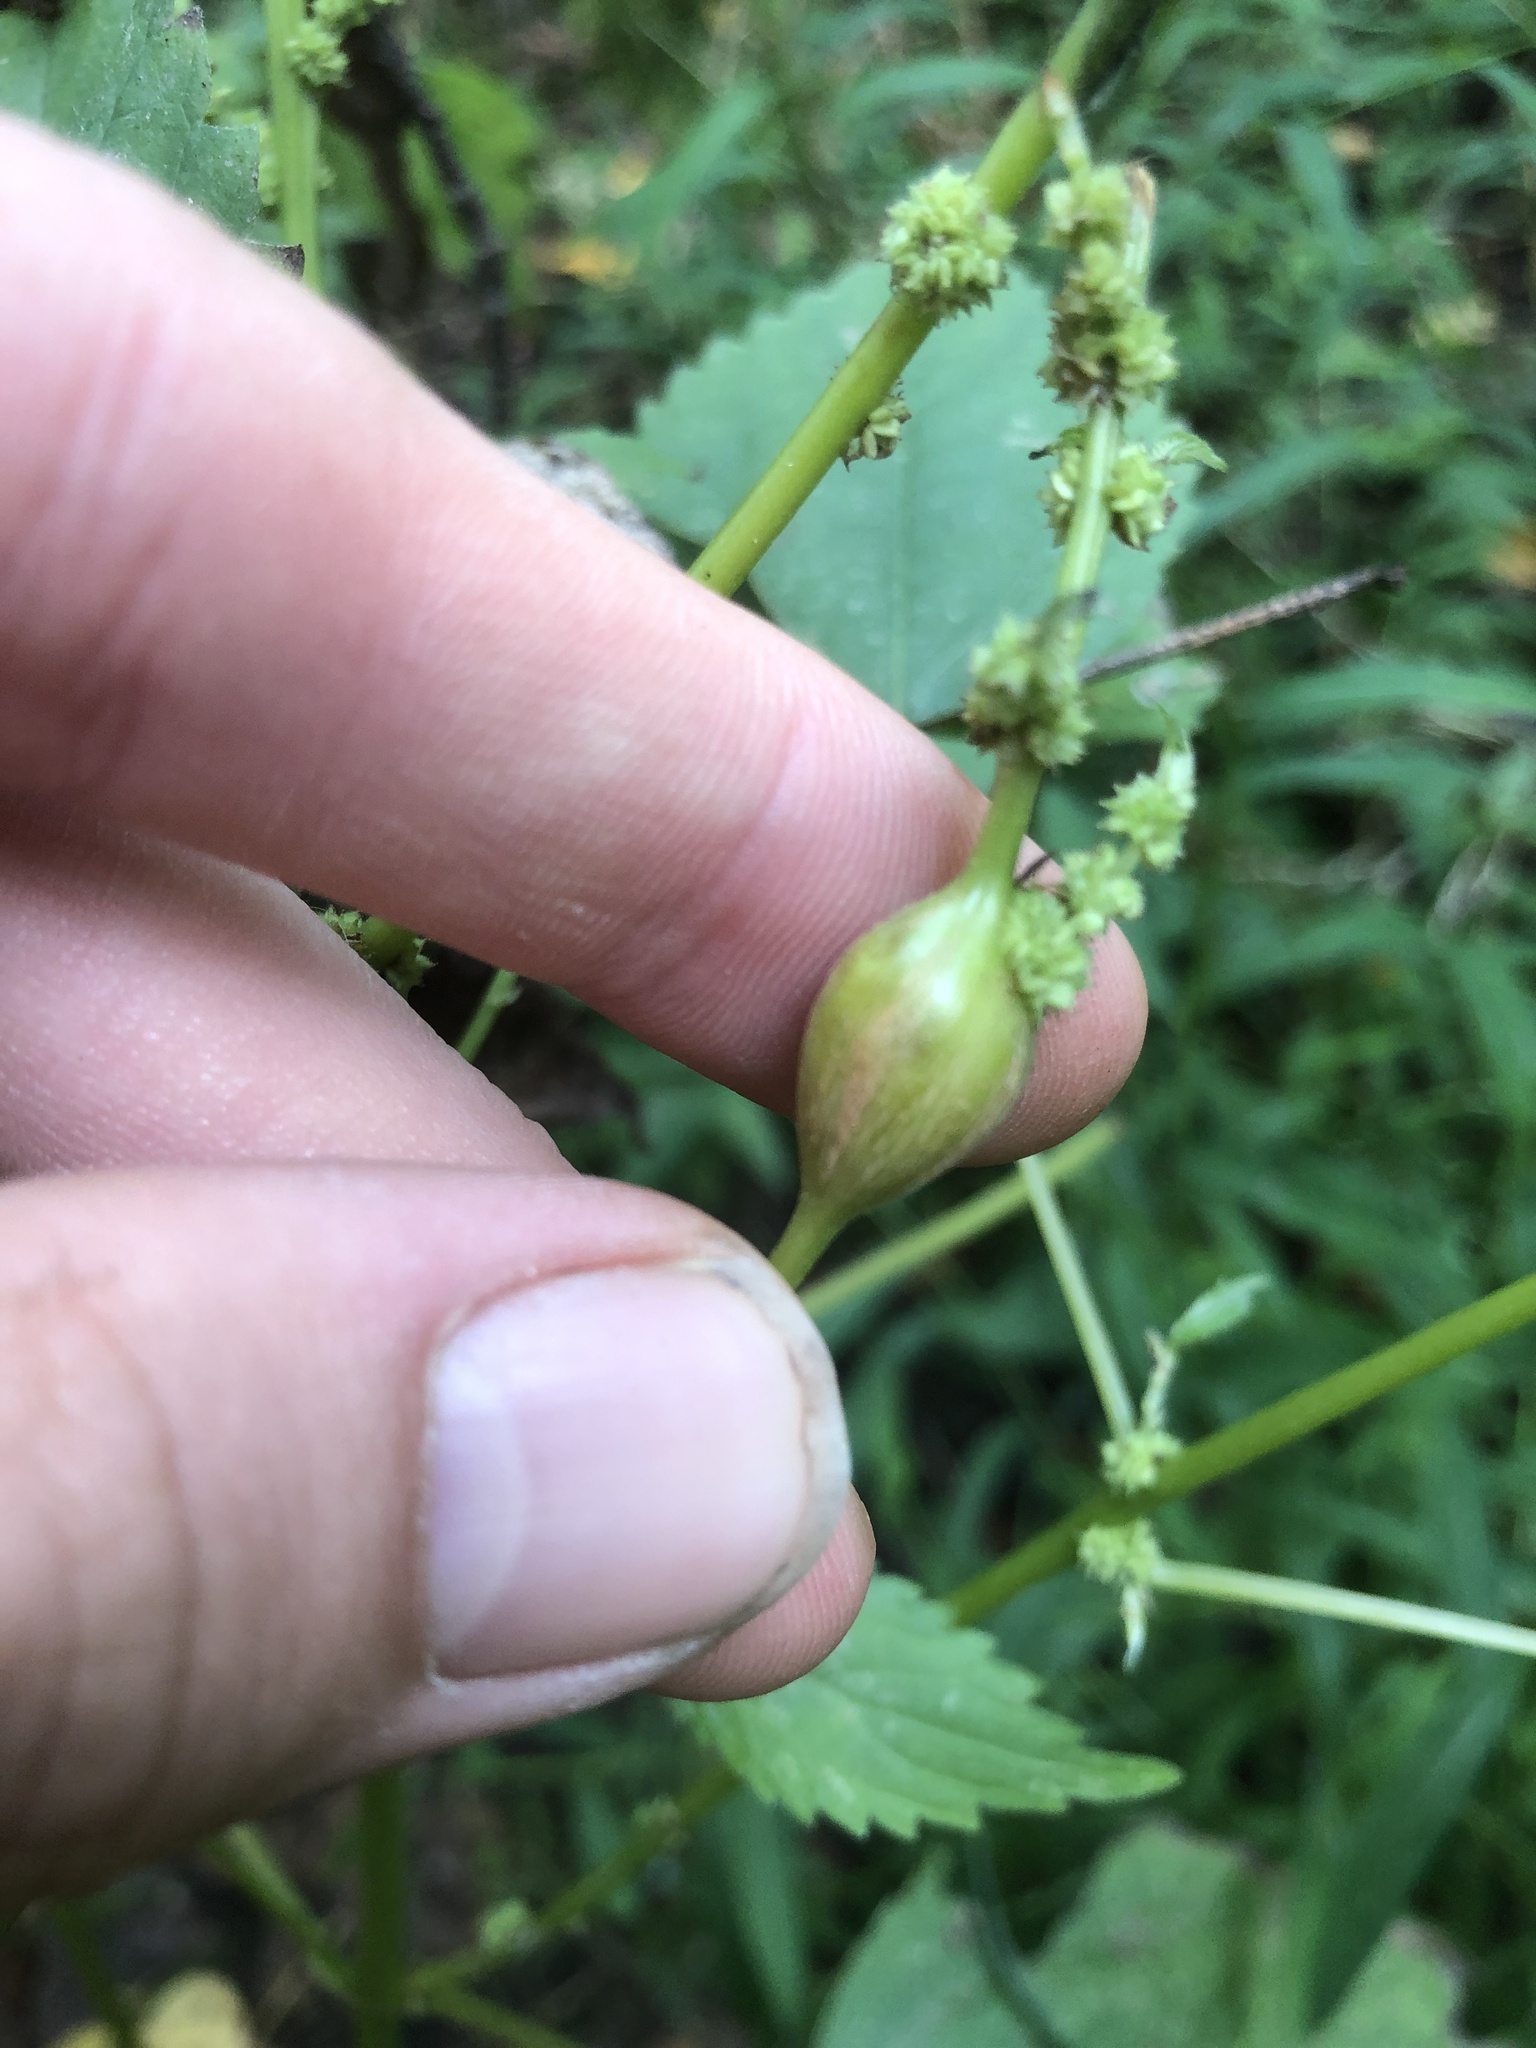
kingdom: Animalia
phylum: Arthropoda
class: Insecta
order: Diptera
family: Cecidomyiidae
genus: Neolasioptera
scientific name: Neolasioptera boehmeriae
